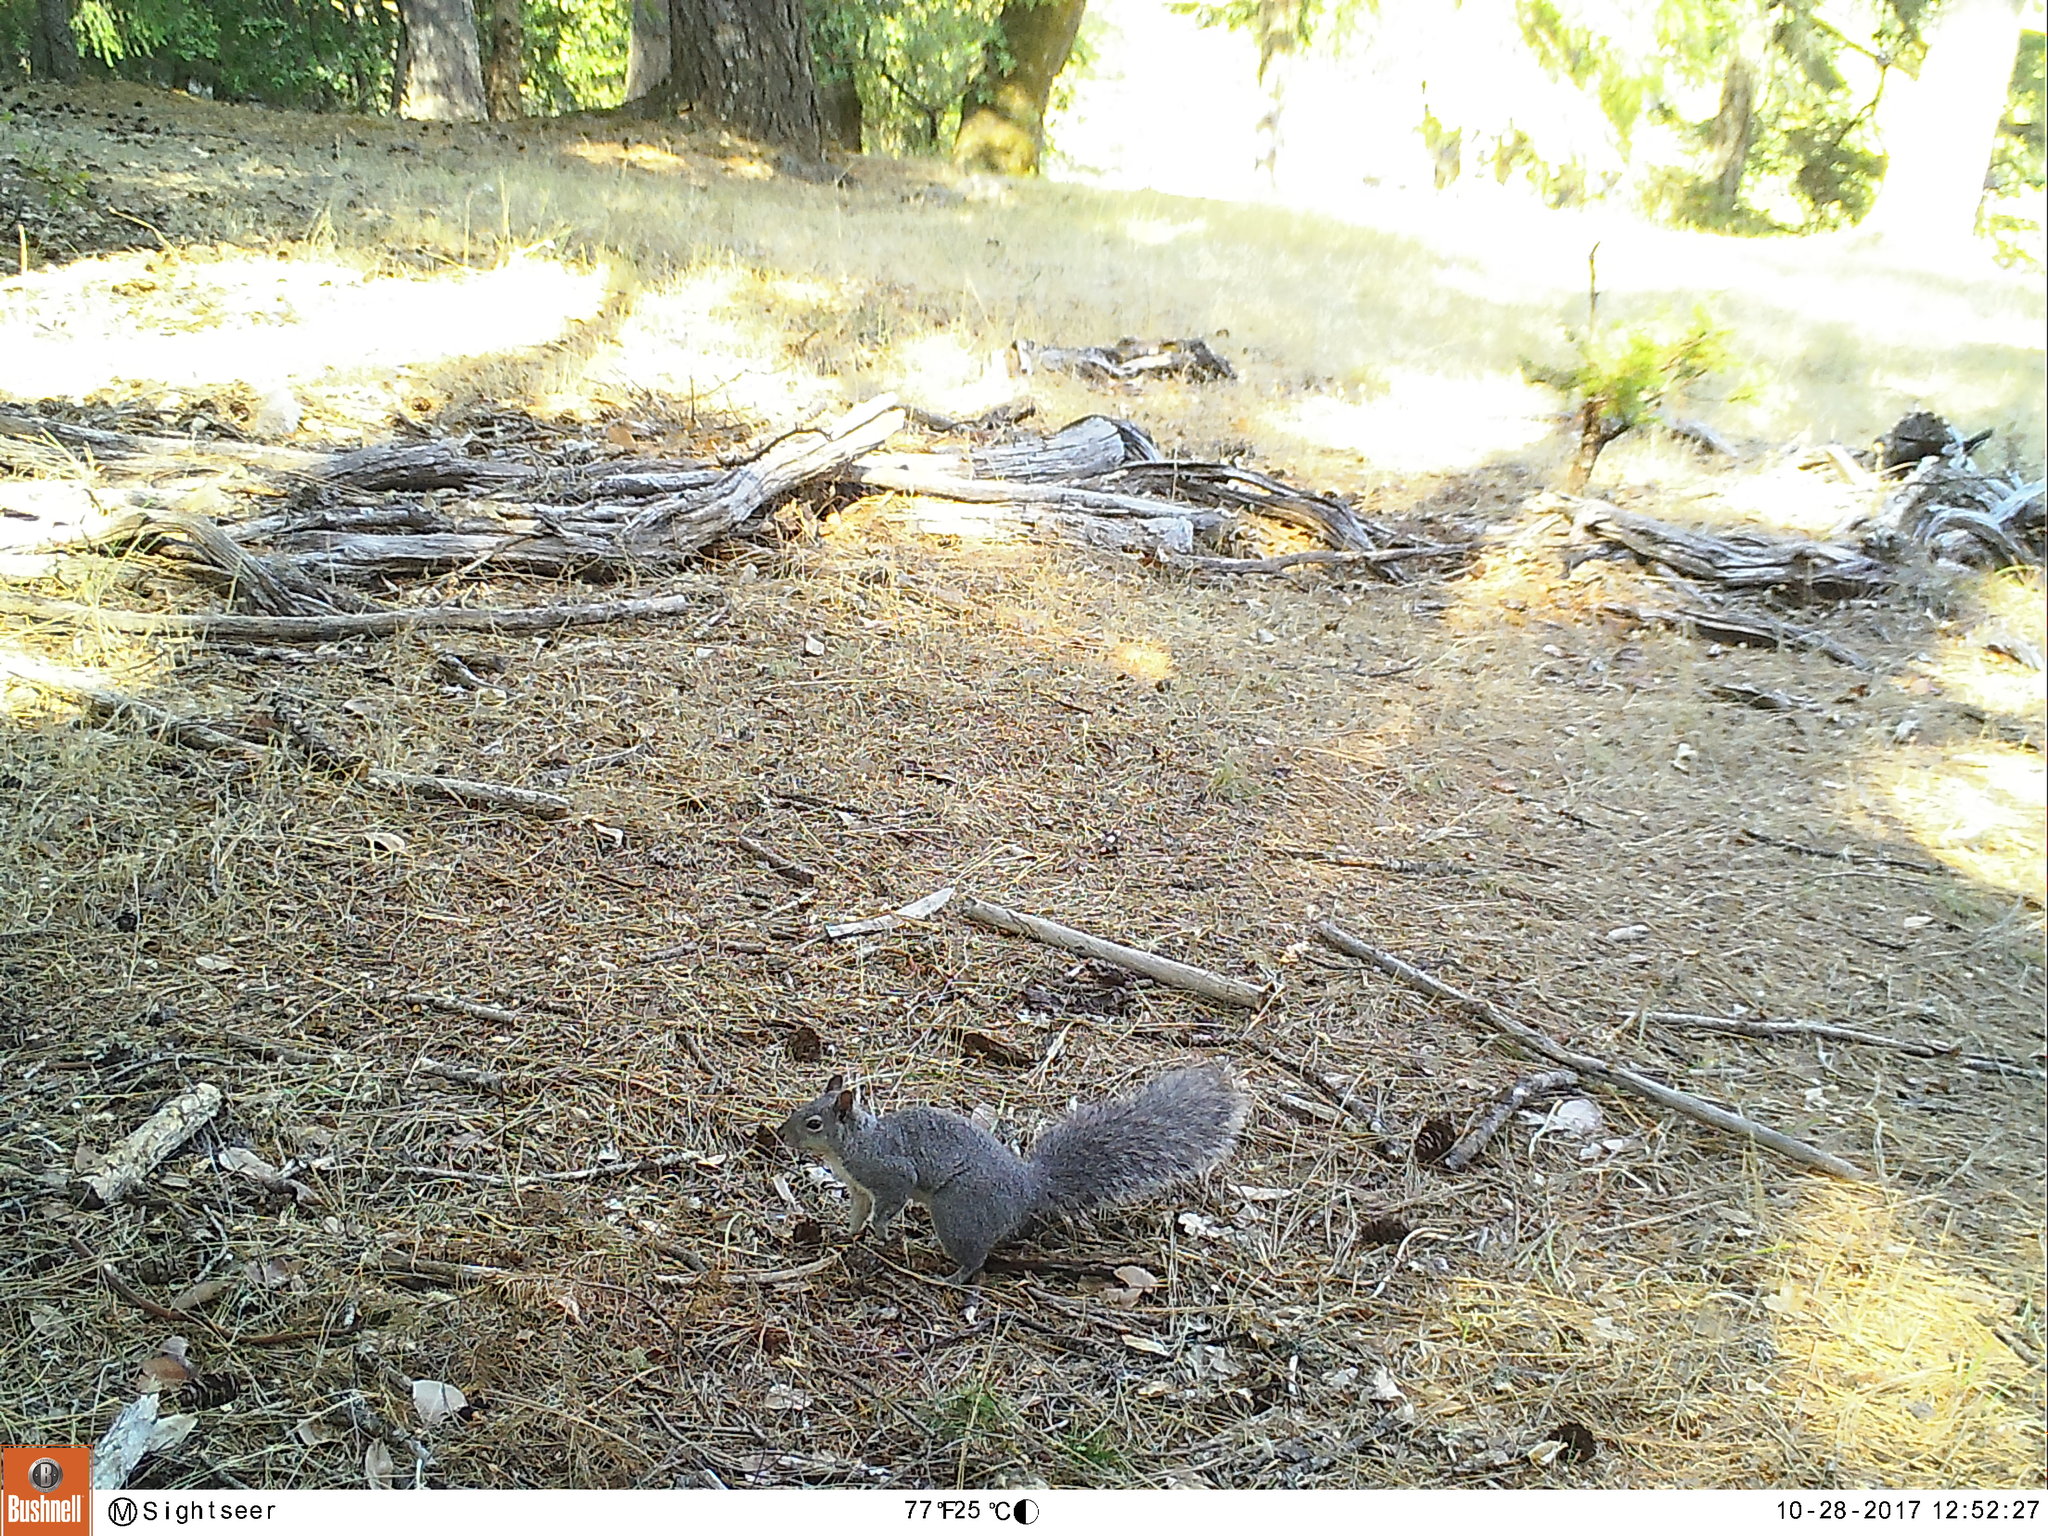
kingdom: Animalia
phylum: Chordata
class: Mammalia
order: Rodentia
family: Sciuridae
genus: Sciurus
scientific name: Sciurus griseus
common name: Western gray squirrel
